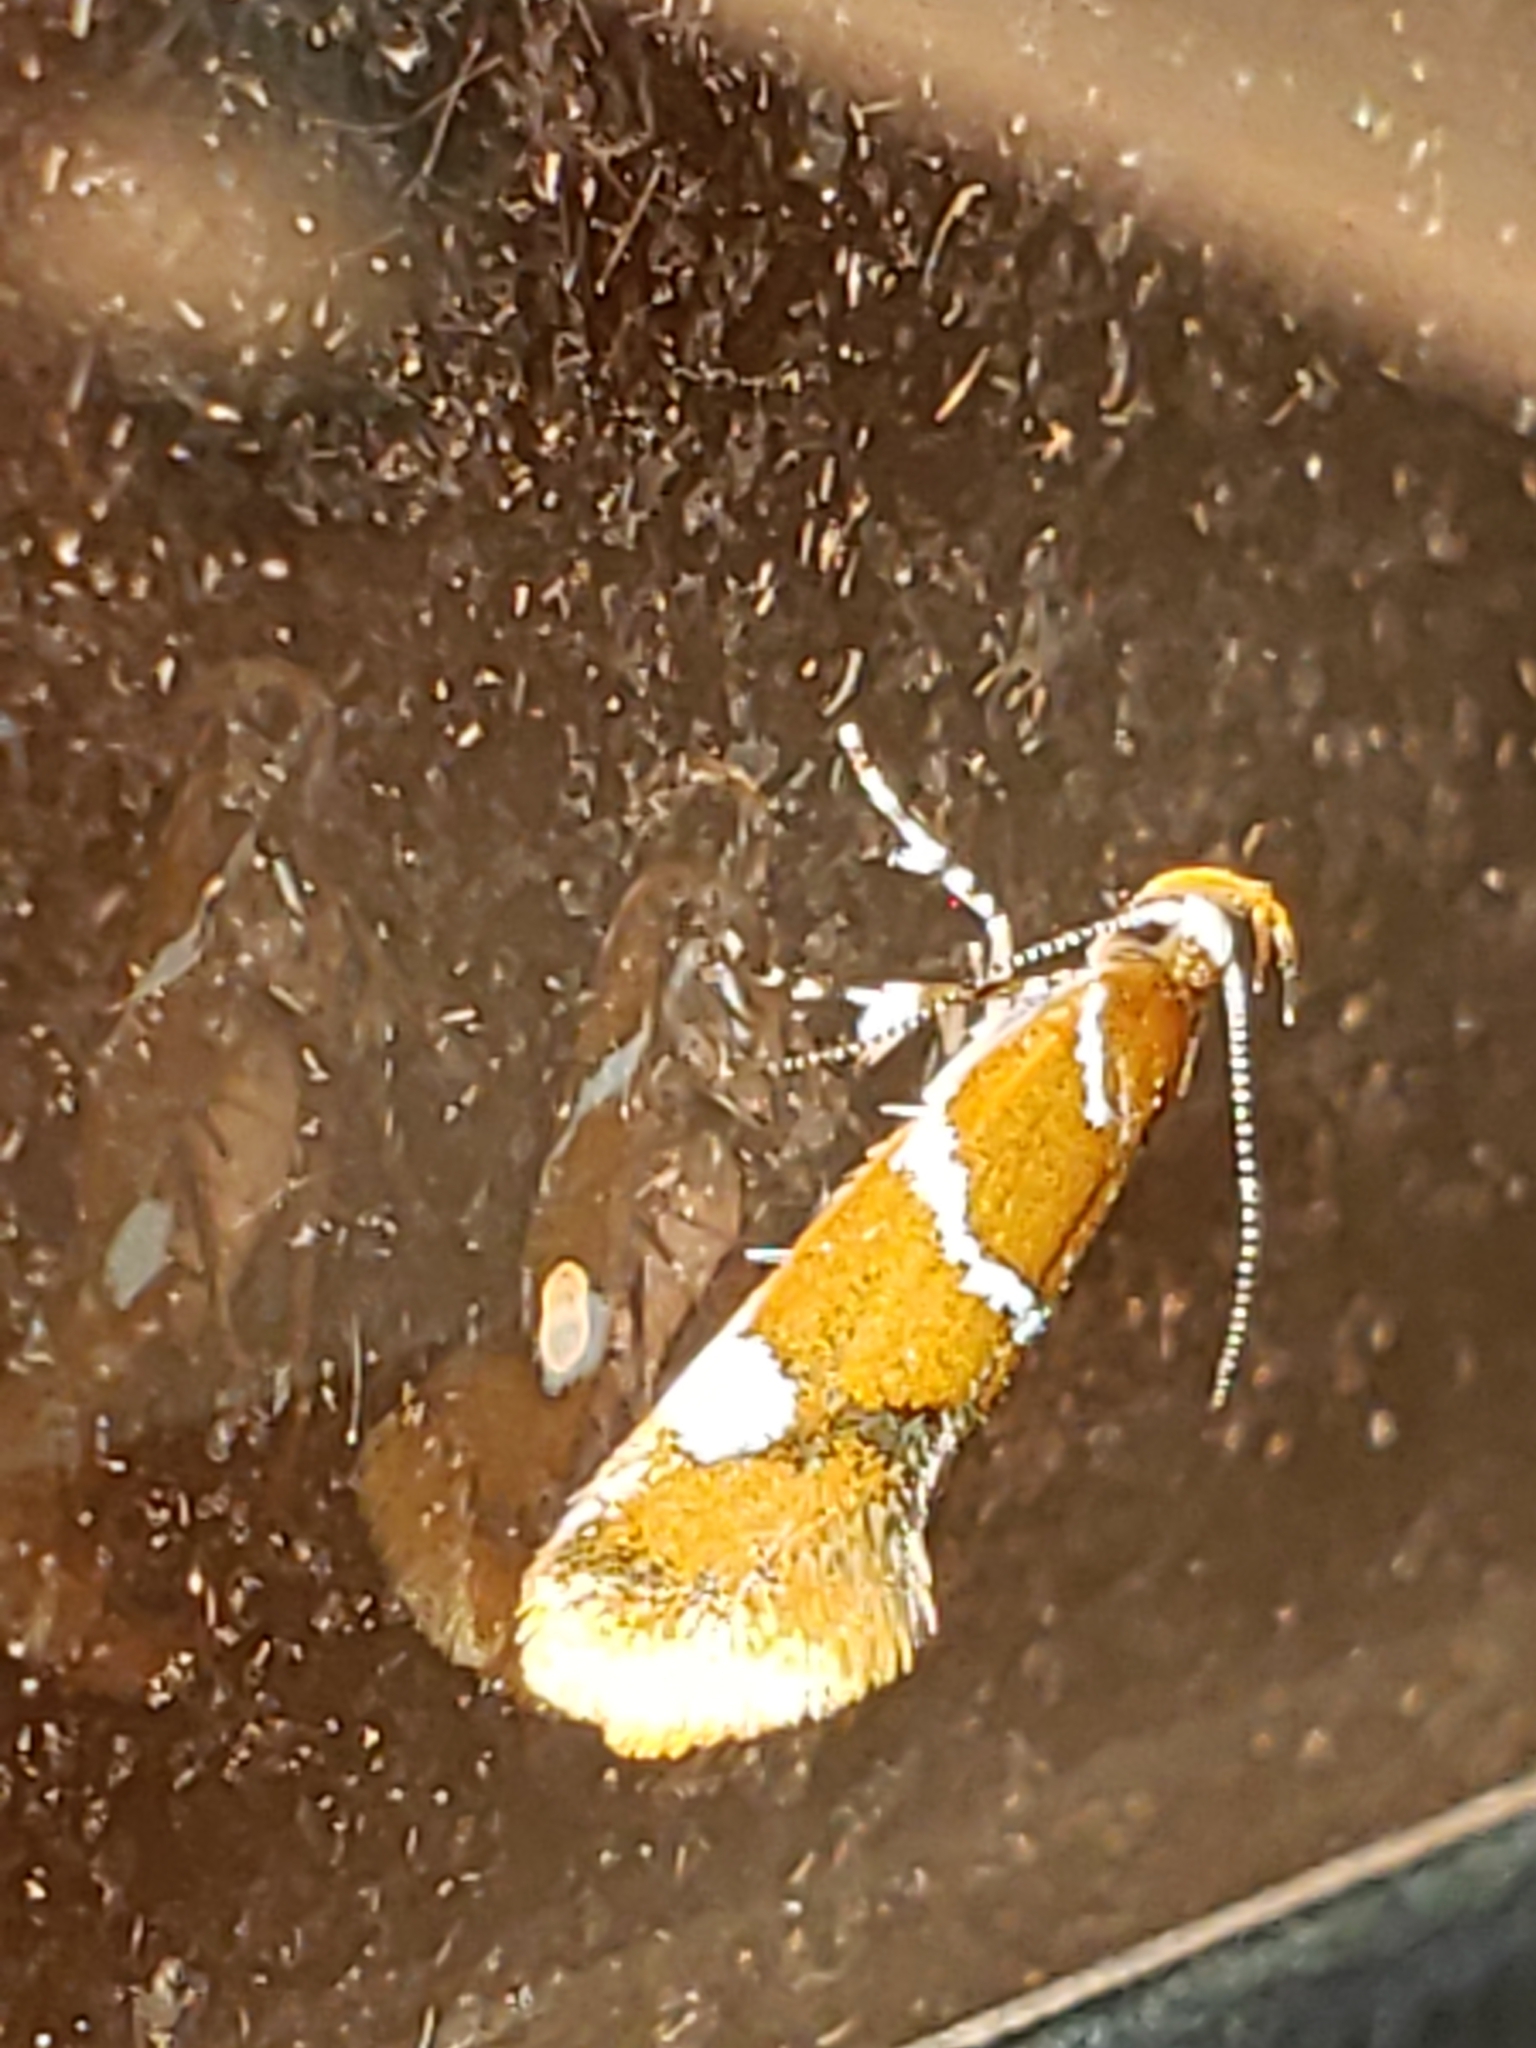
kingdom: Animalia
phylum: Arthropoda
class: Insecta
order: Lepidoptera
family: Oecophoridae
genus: Promalactis
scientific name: Promalactis suzukiella
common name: Moth
